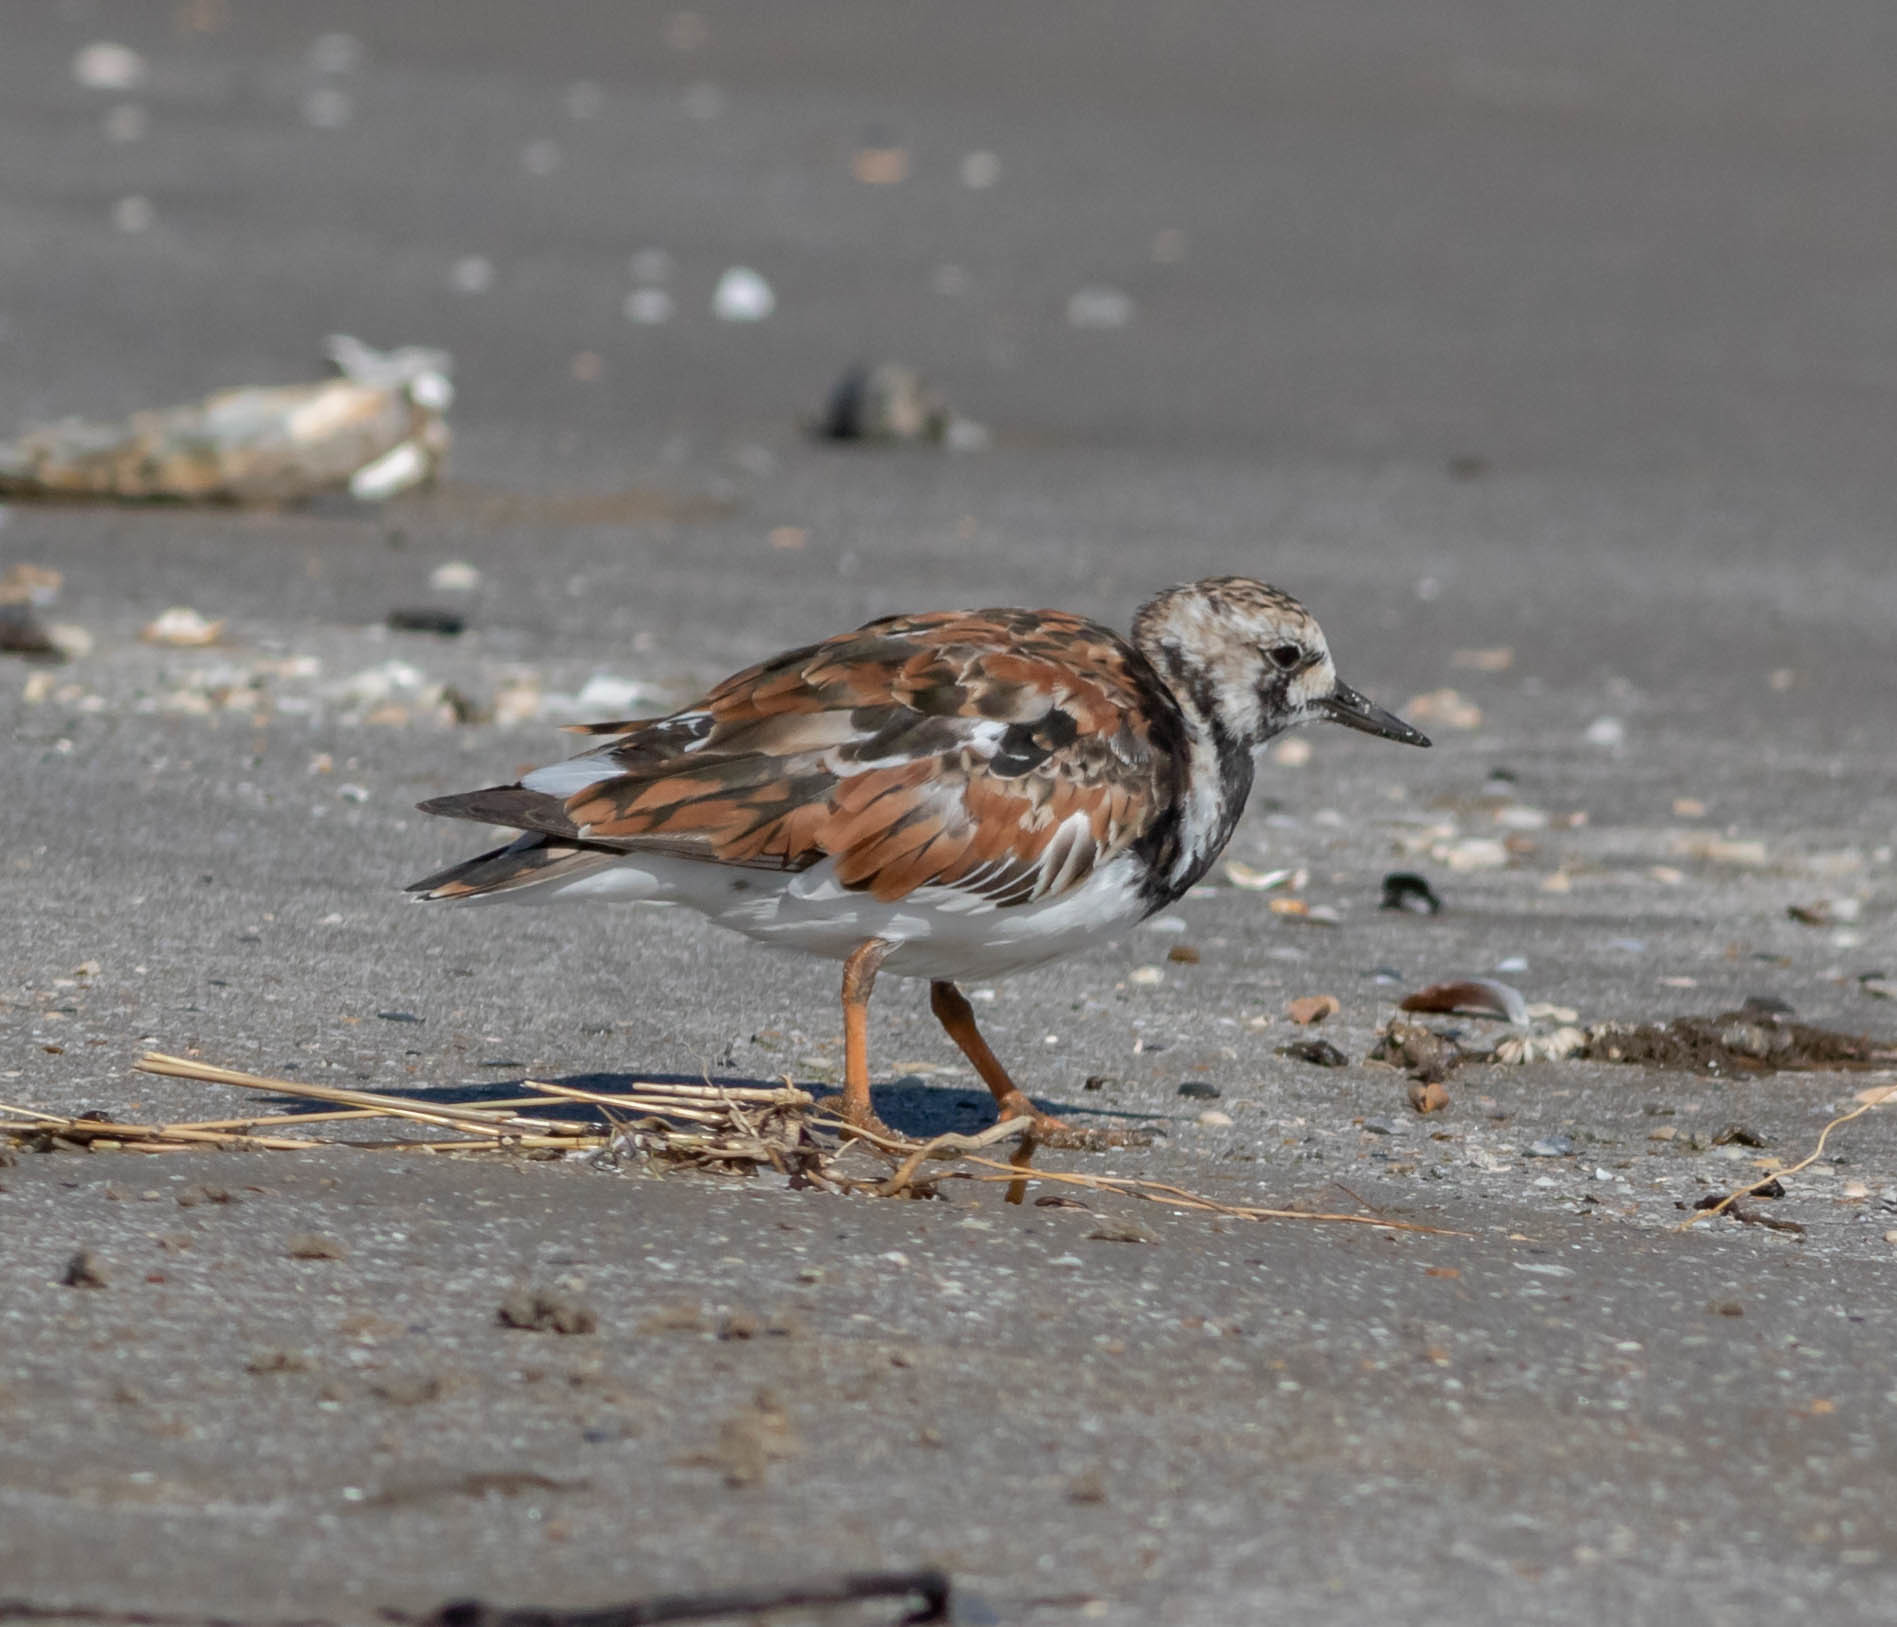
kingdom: Animalia
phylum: Chordata
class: Aves
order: Charadriiformes
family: Scolopacidae
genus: Arenaria
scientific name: Arenaria interpres
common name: Ruddy turnstone
